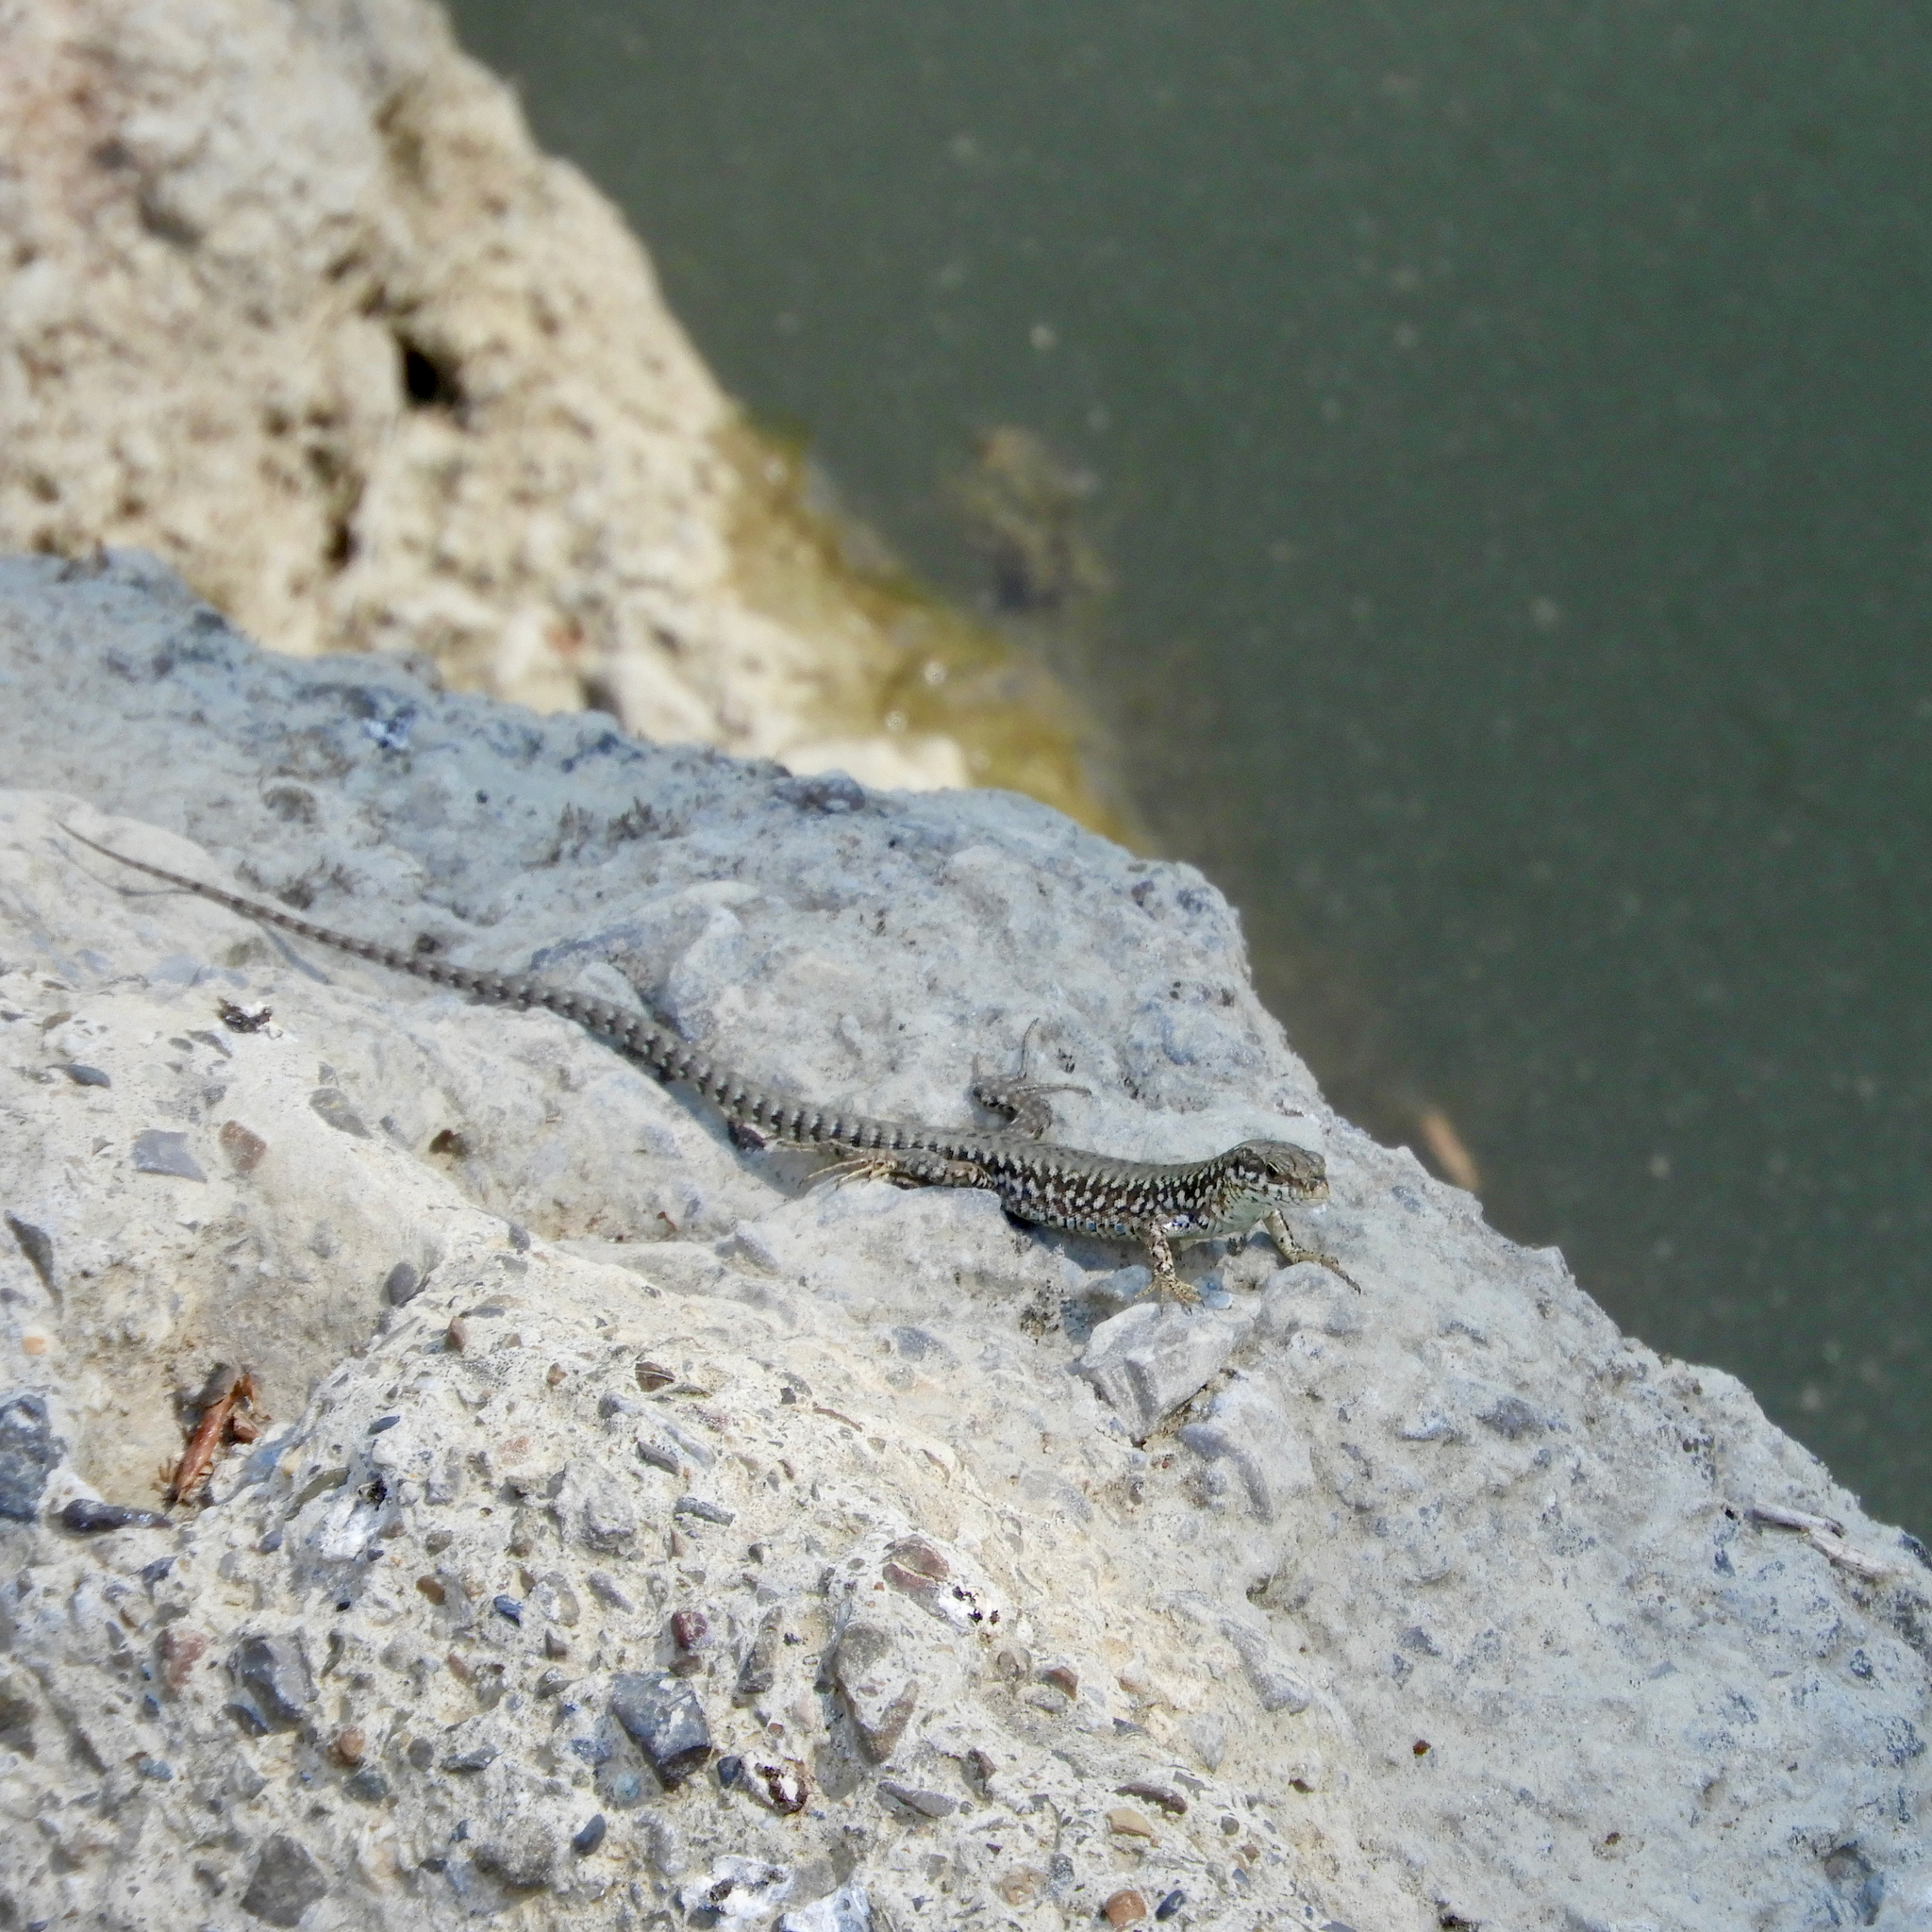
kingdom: Animalia
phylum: Chordata
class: Squamata
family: Lacertidae
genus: Podarcis
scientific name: Podarcis muralis
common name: Common wall lizard
